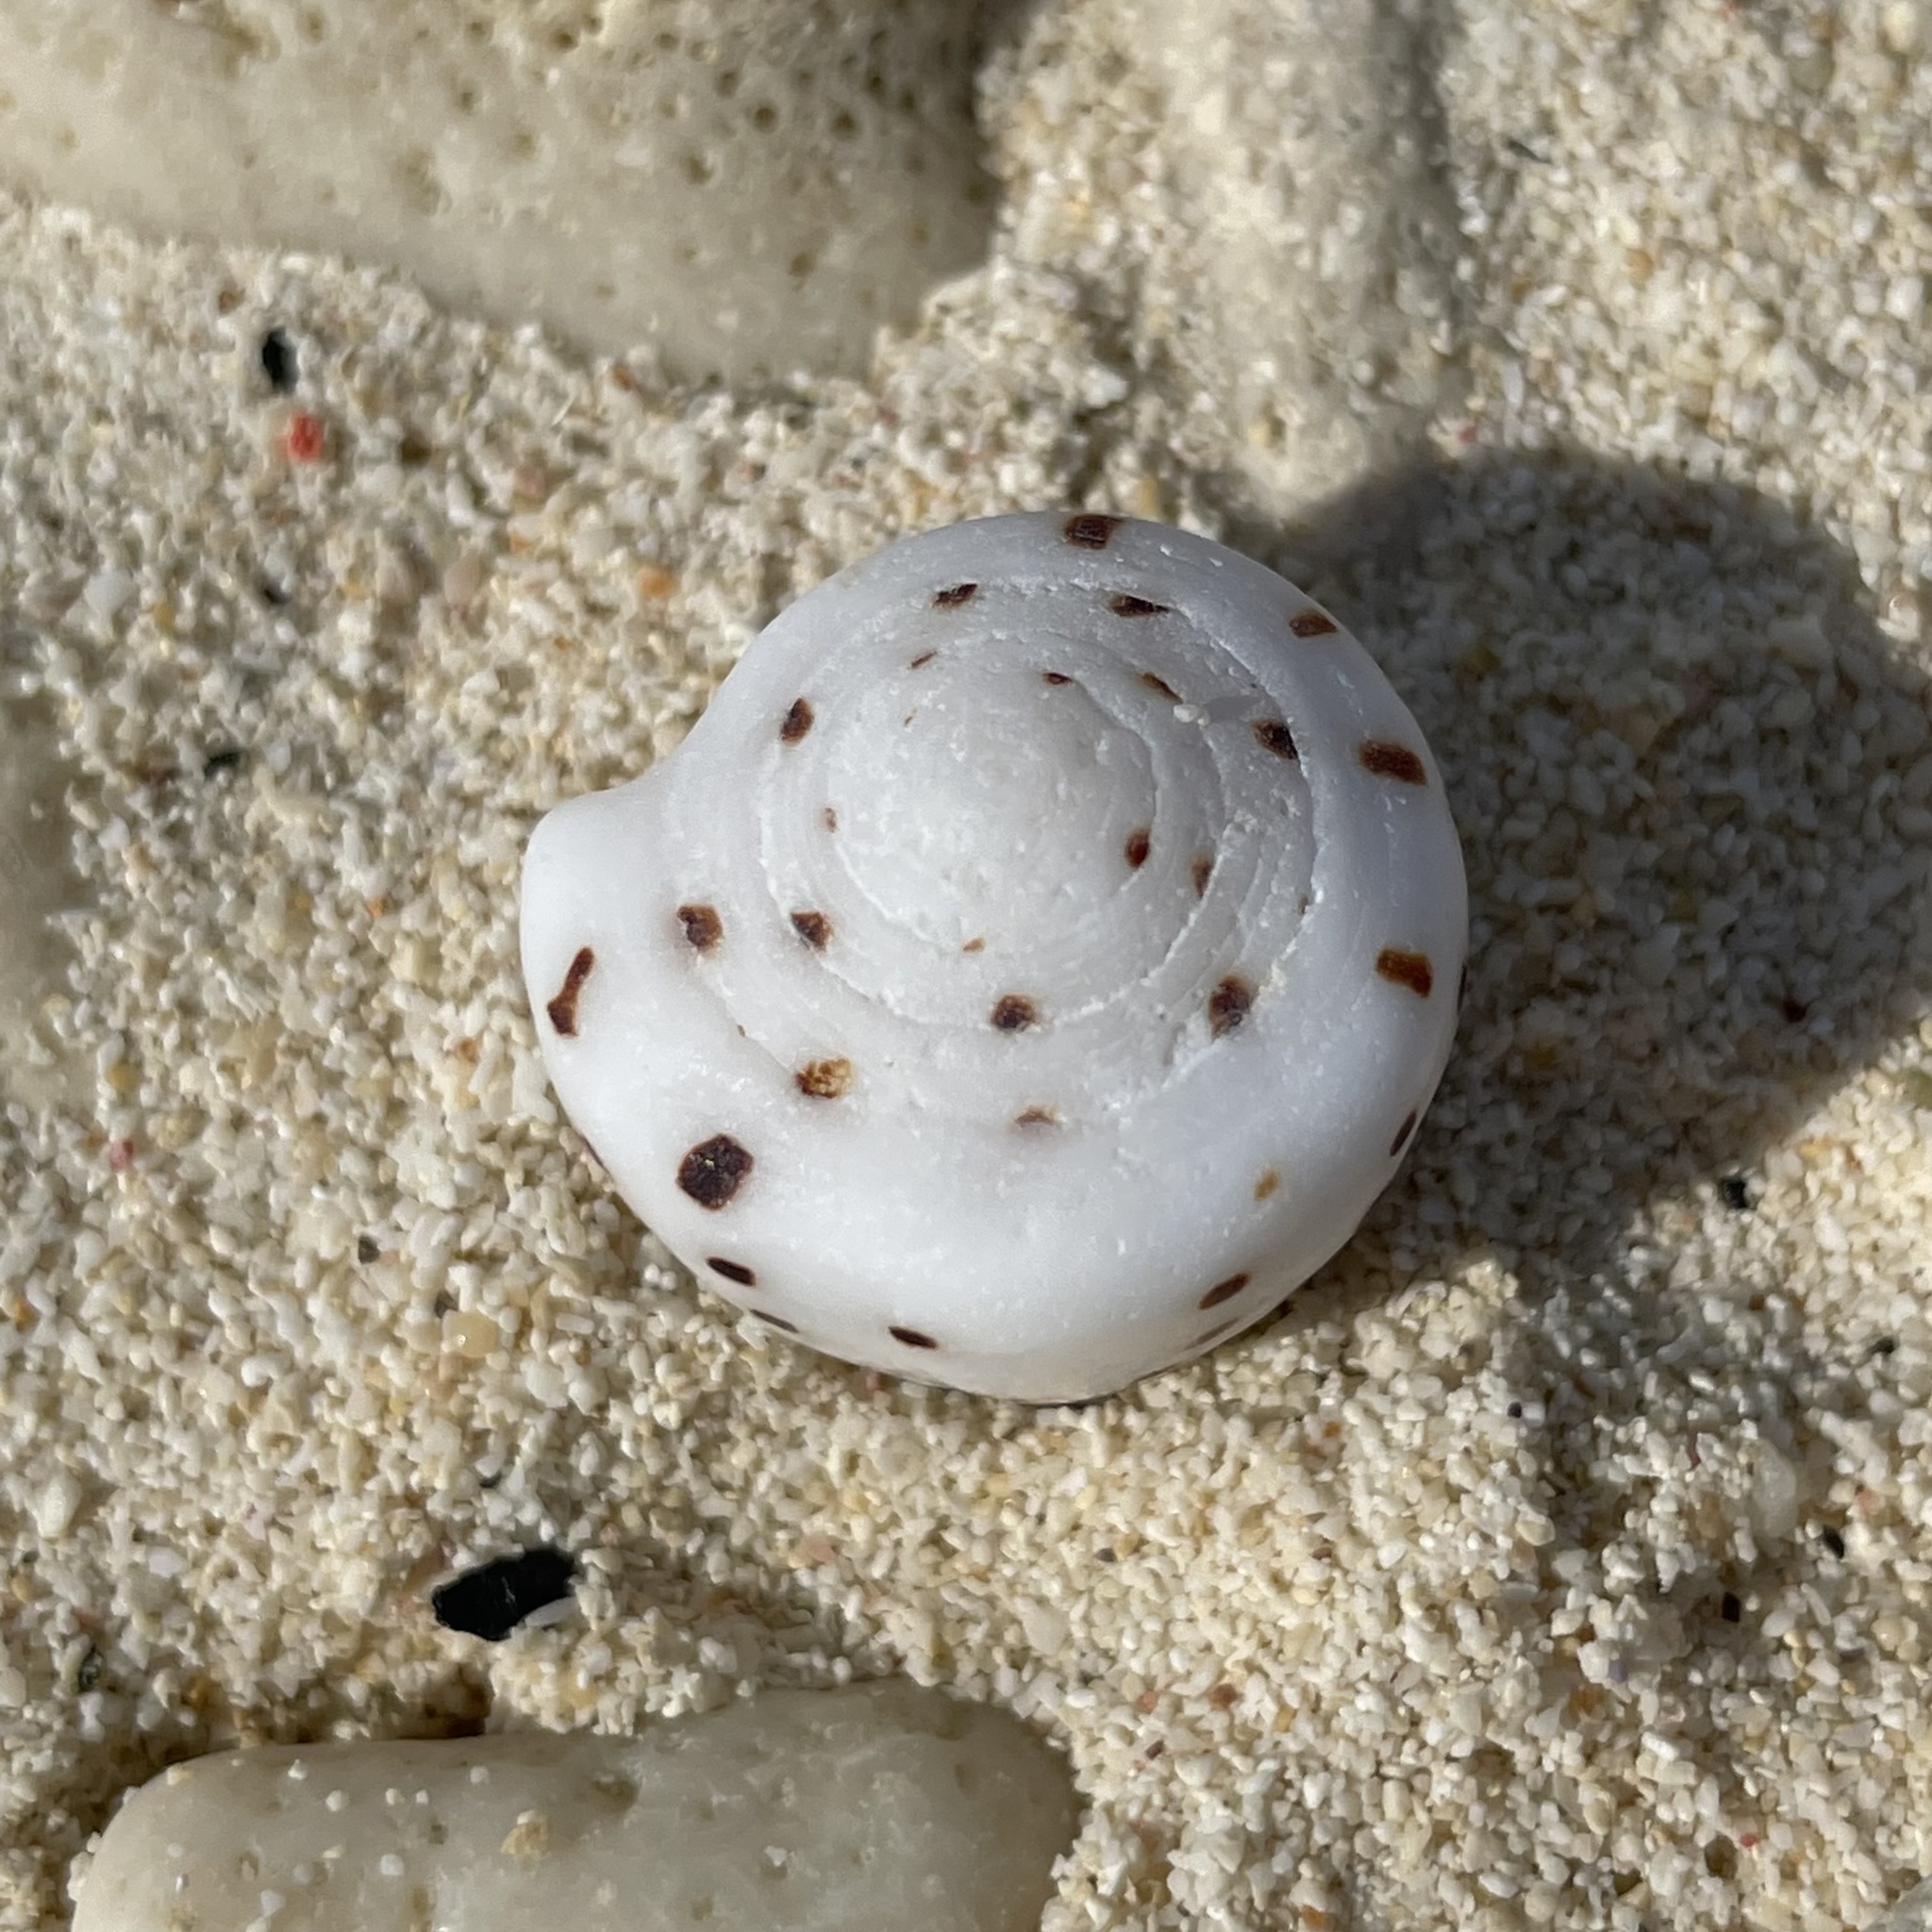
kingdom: Animalia
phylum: Mollusca
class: Gastropoda
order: Neogastropoda
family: Conidae
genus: Conus
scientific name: Conus eburneus
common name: Ivory cone
